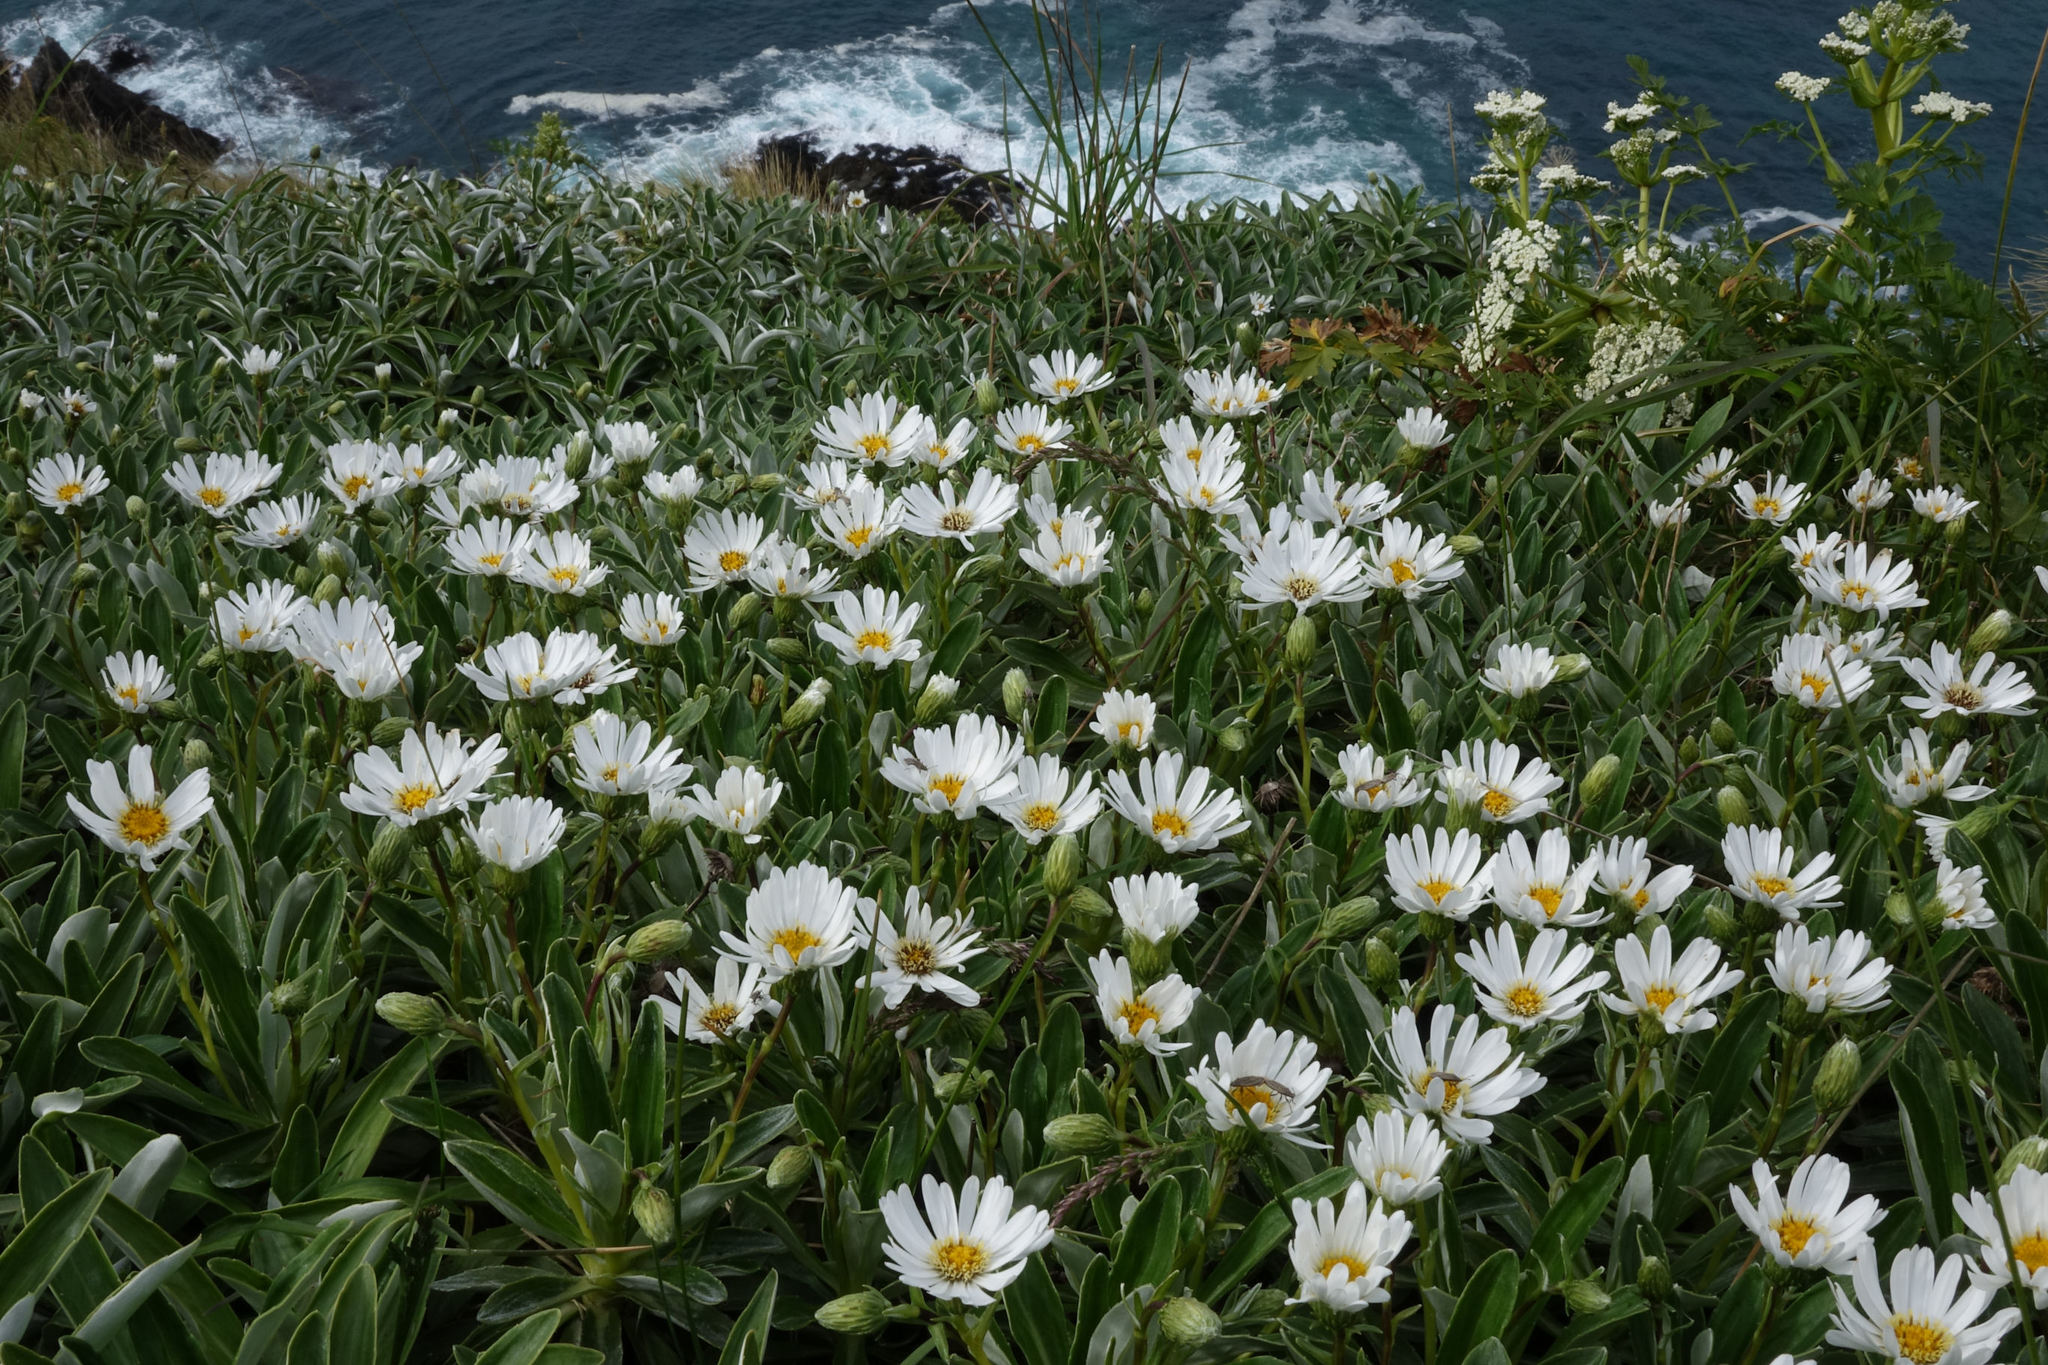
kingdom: Plantae
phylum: Tracheophyta
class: Magnoliopsida
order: Asterales
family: Asteraceae
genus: Celmisia
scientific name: Celmisia lindsayi
